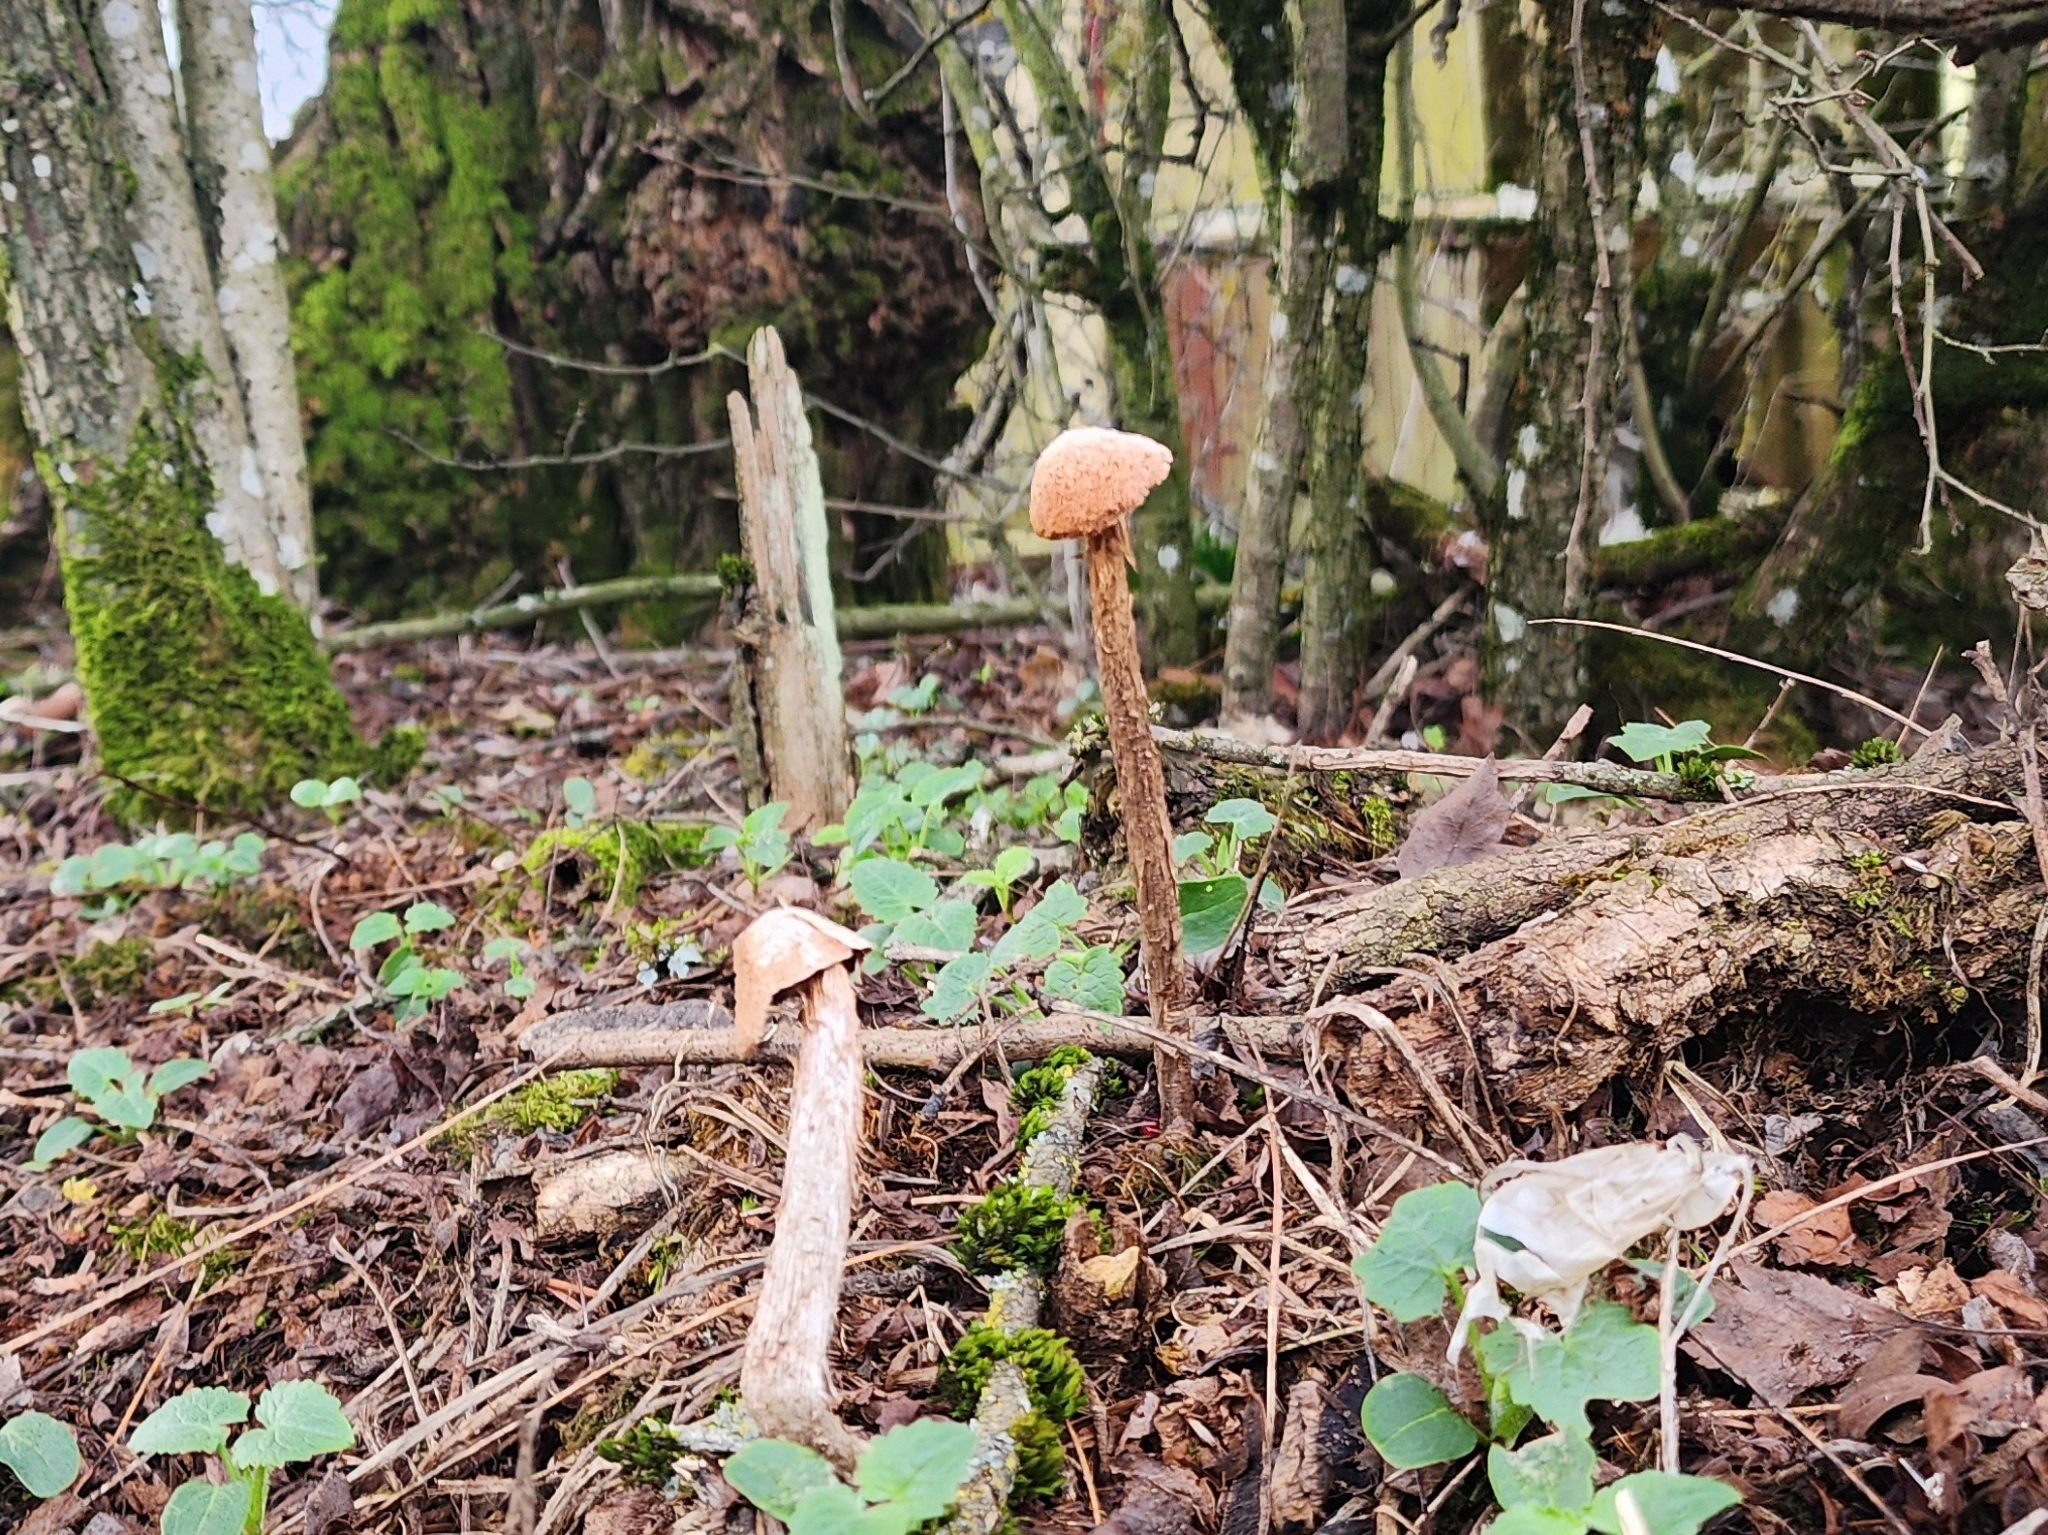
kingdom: Fungi
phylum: Basidiomycota
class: Agaricomycetes
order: Agaricales
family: Agaricaceae
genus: Battarrea
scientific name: Battarrea phalloides
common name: Sandy stiltball
